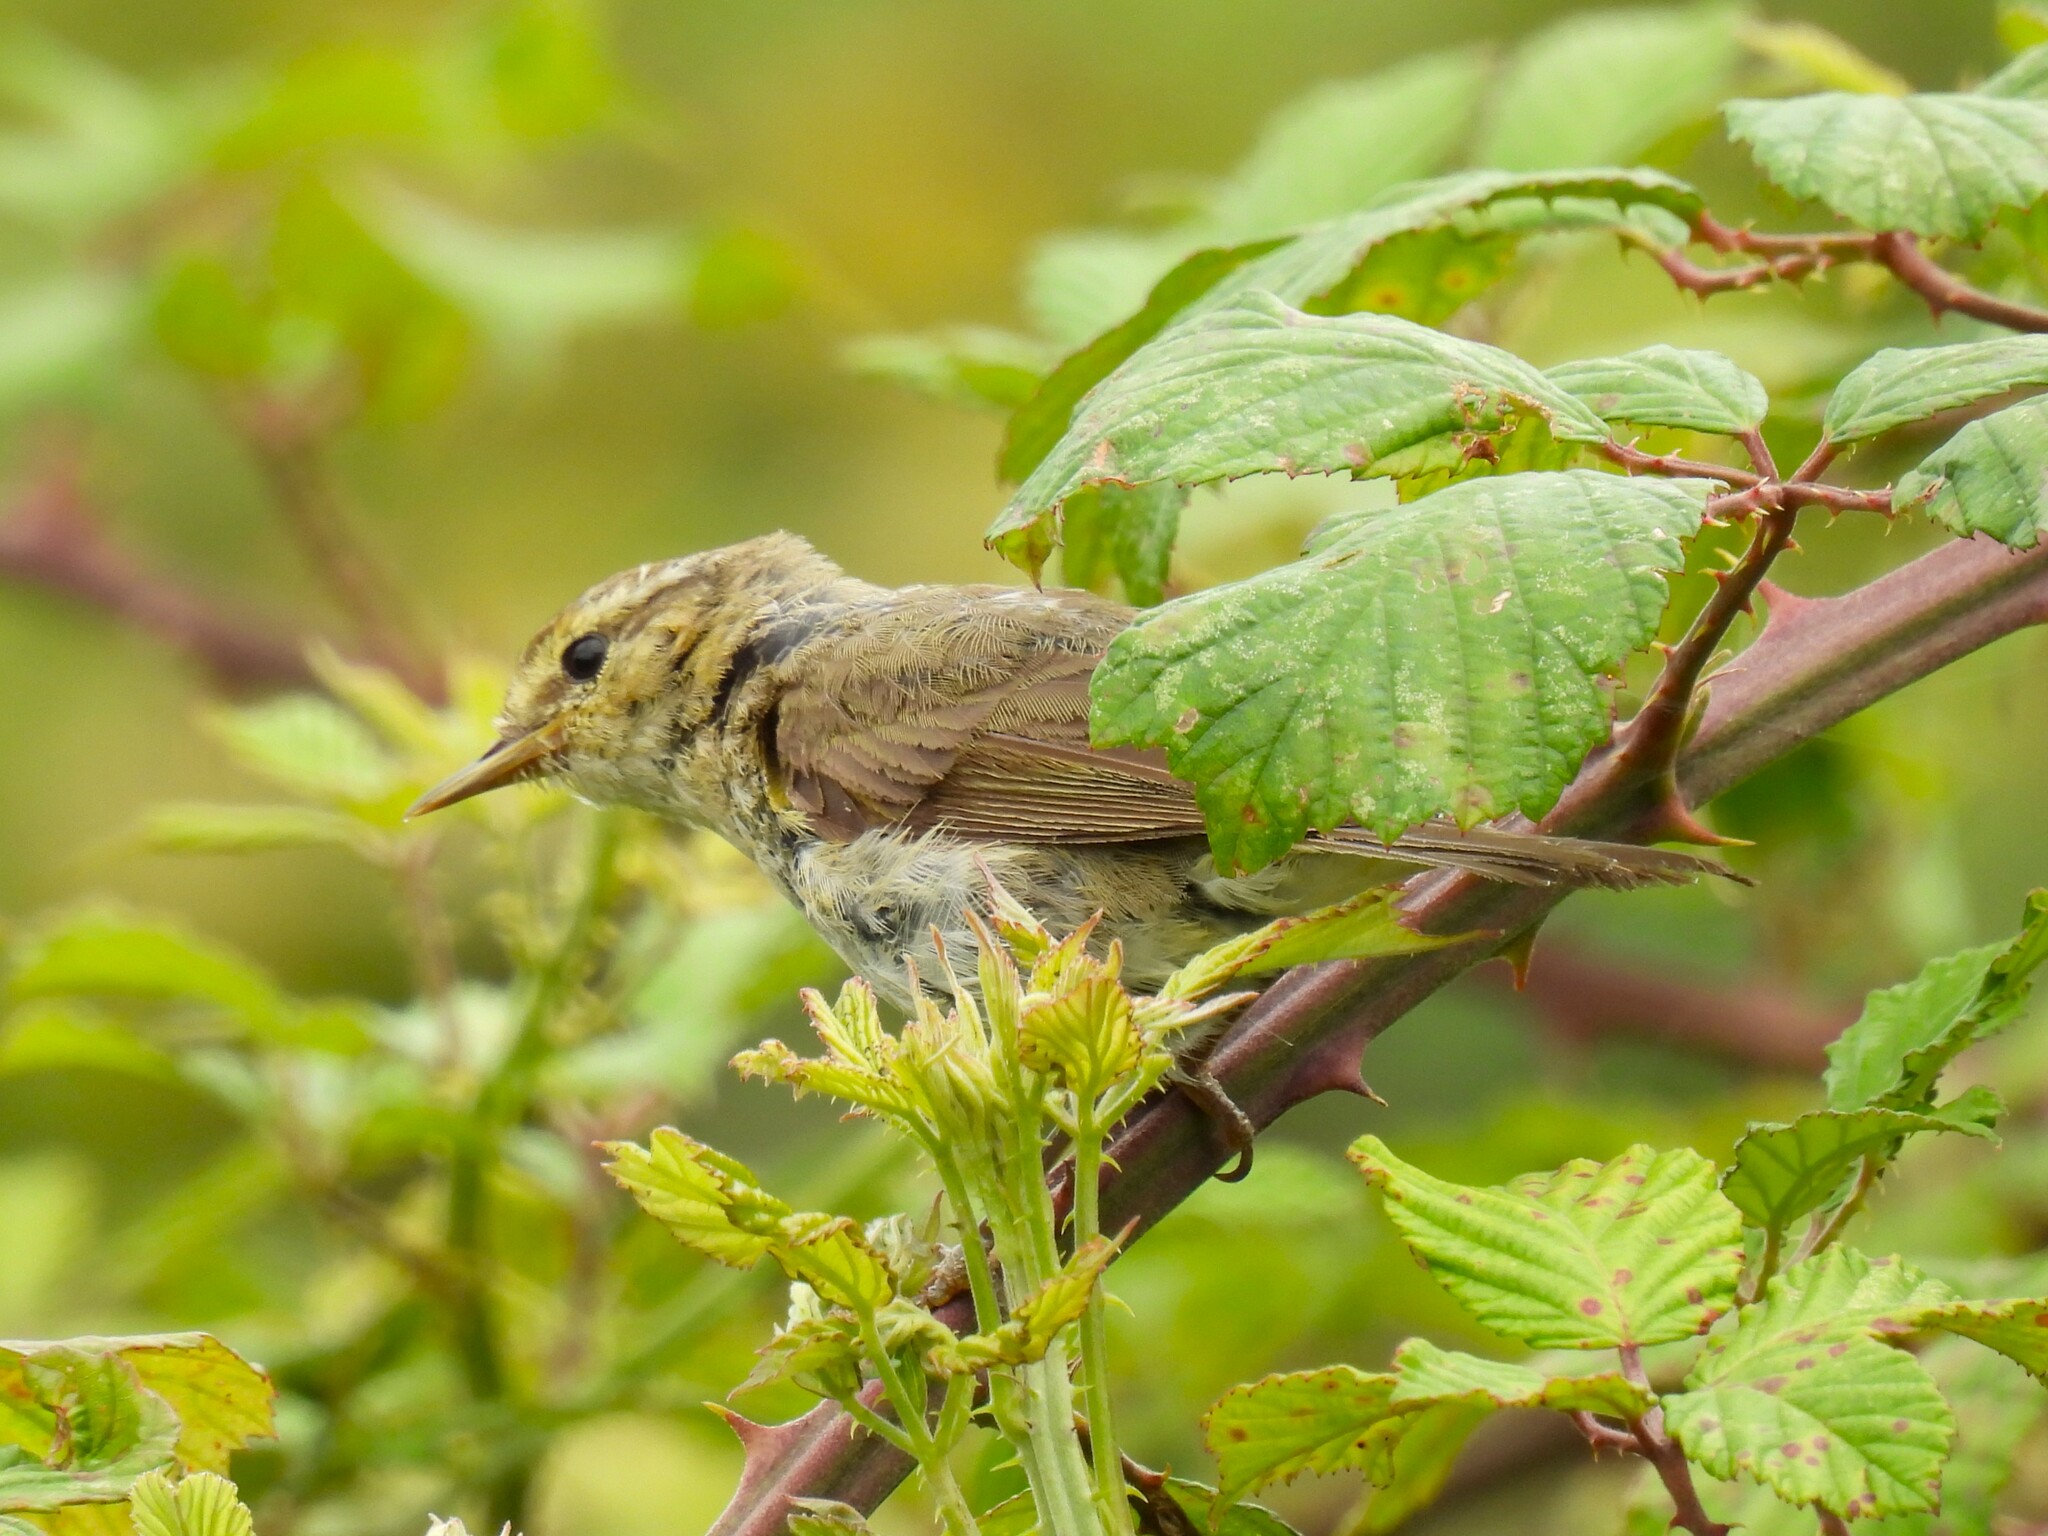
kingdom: Animalia
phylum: Chordata
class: Aves
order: Passeriformes
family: Phylloscopidae
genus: Phylloscopus
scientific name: Phylloscopus trochilus
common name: Willow warbler
